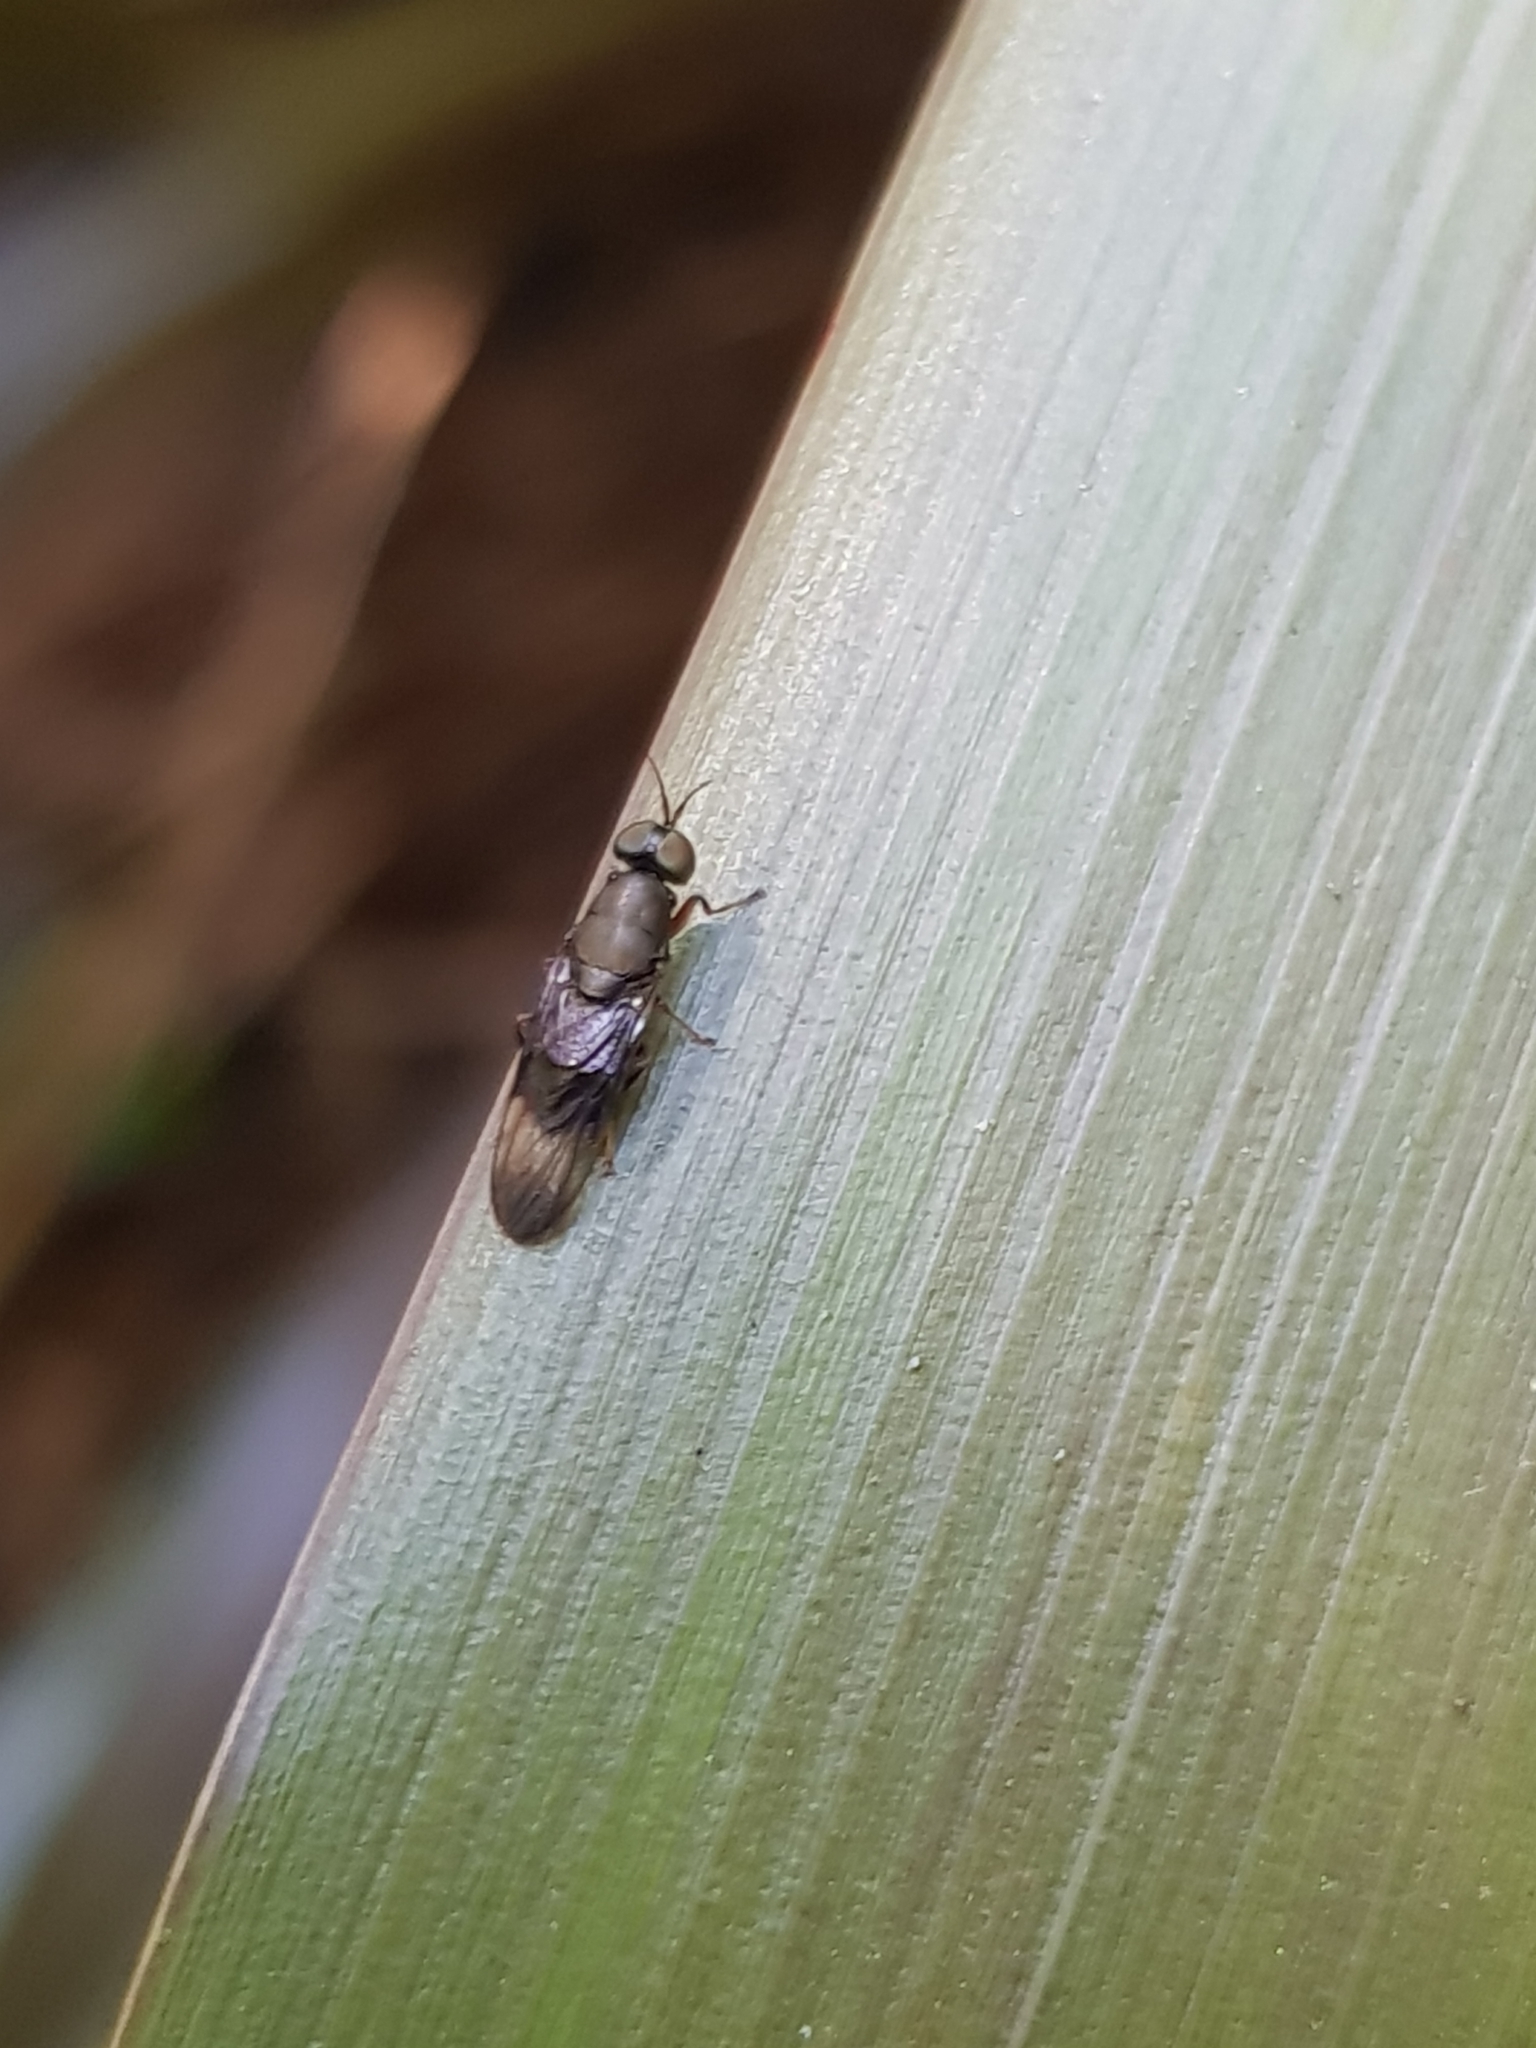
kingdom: Animalia
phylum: Arthropoda
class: Insecta
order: Diptera
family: Stratiomyidae
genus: Dysbiota
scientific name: Dysbiota peregrina
